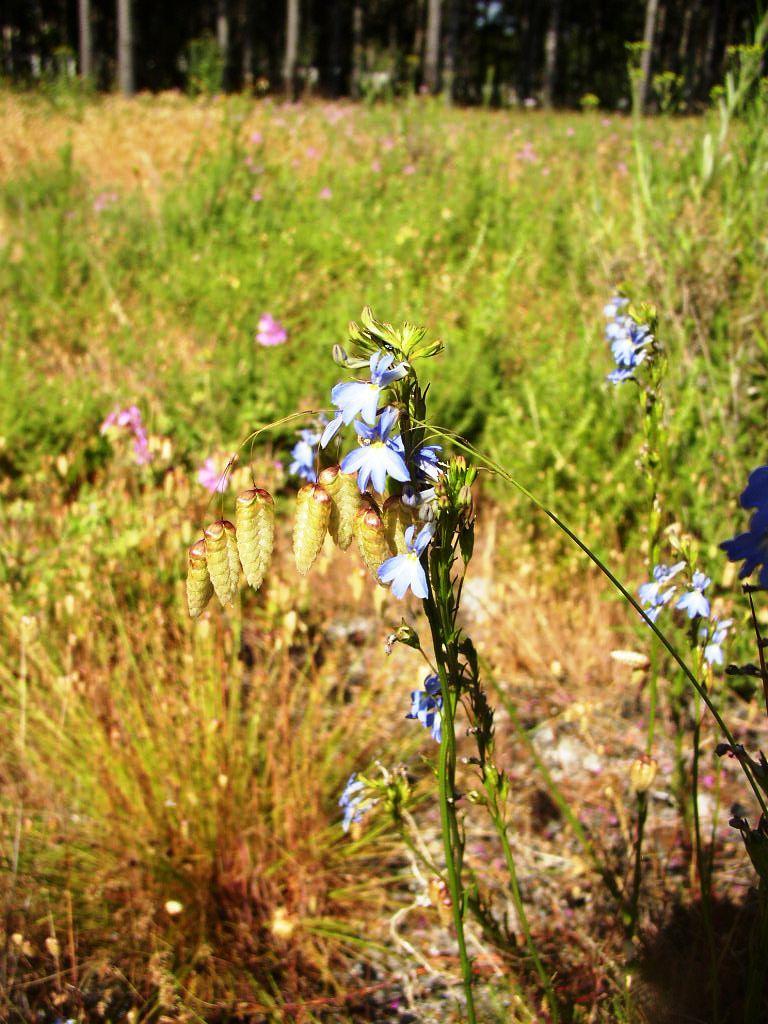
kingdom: Plantae
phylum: Tracheophyta
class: Magnoliopsida
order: Asterales
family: Campanulaceae
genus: Lobelia
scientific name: Lobelia comosa
